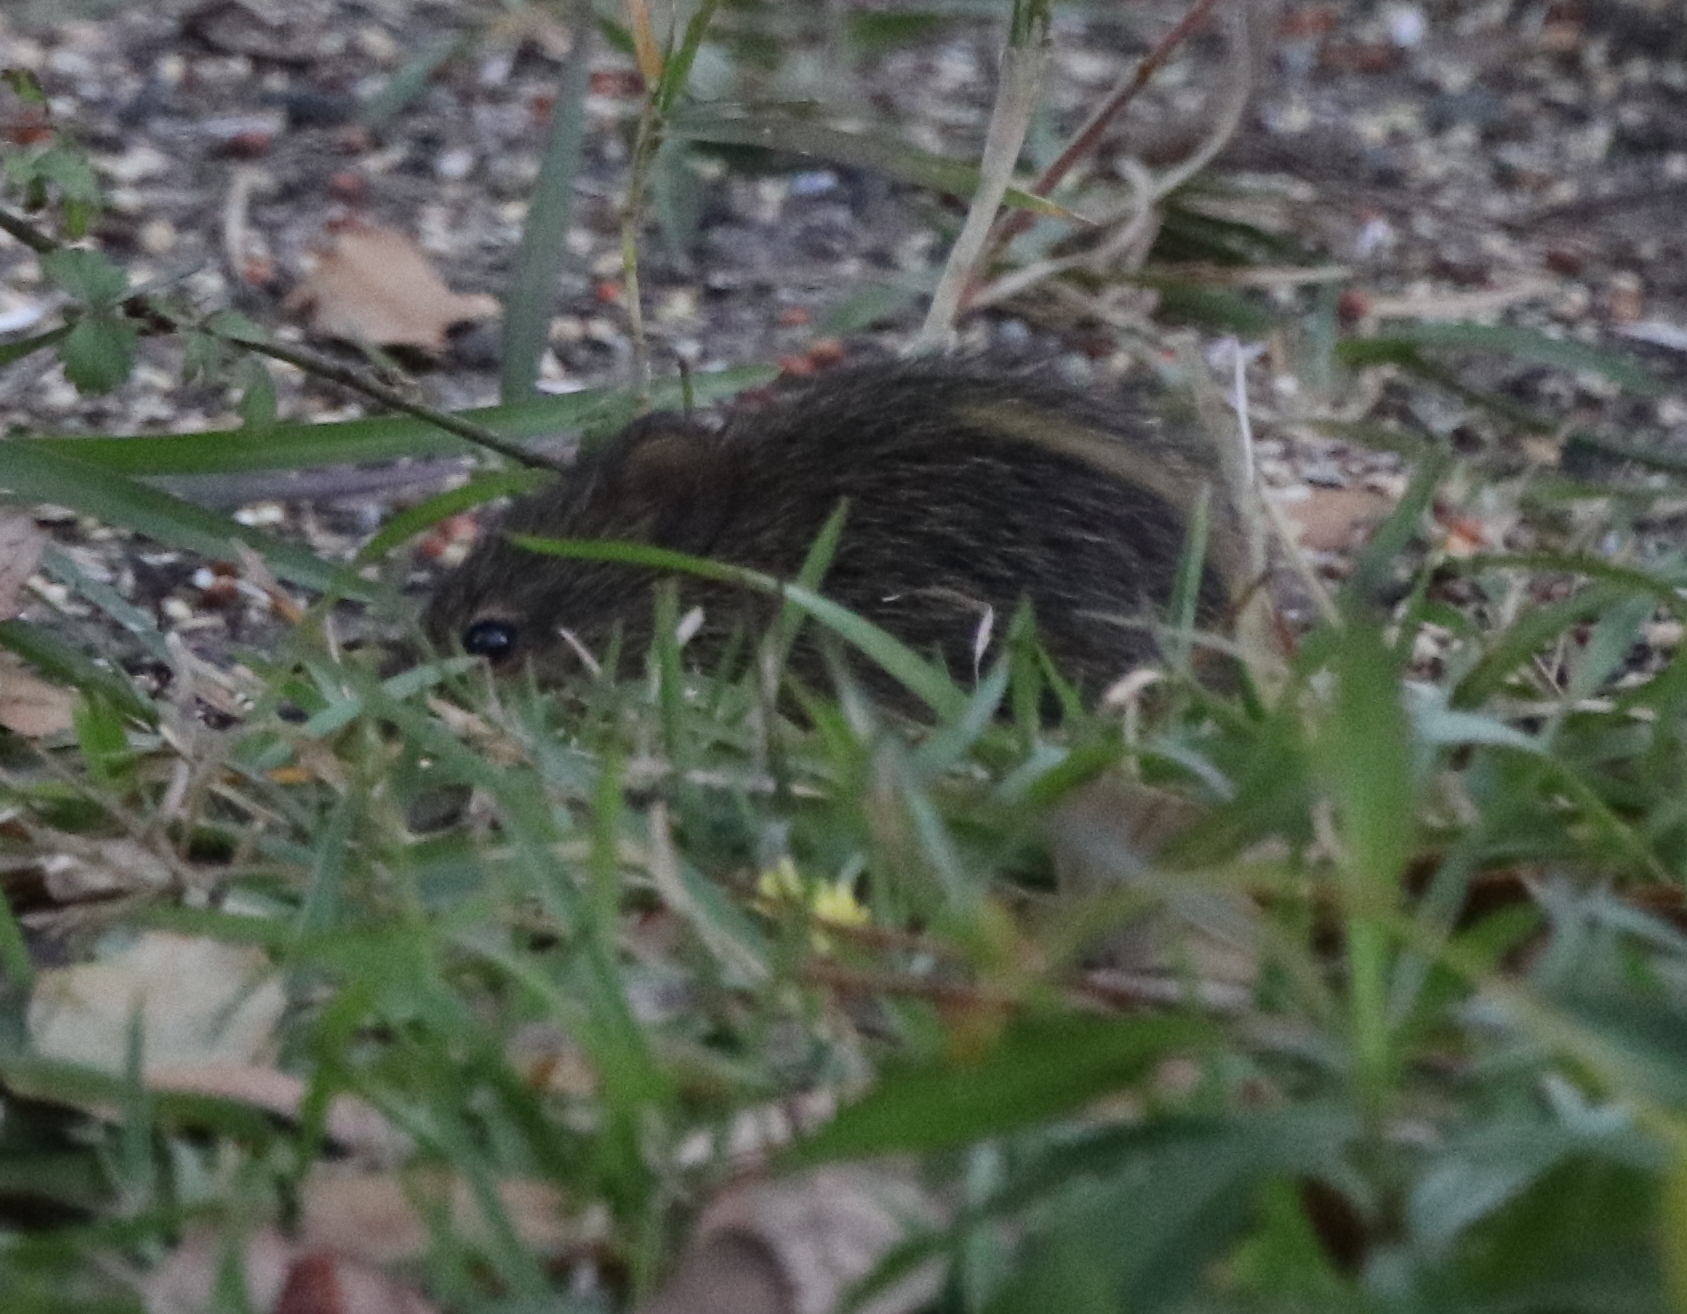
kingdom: Animalia
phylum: Chordata
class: Mammalia
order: Rodentia
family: Cricetidae
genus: Sigmodon
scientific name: Sigmodon hispidus
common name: Hispid cotton rat
